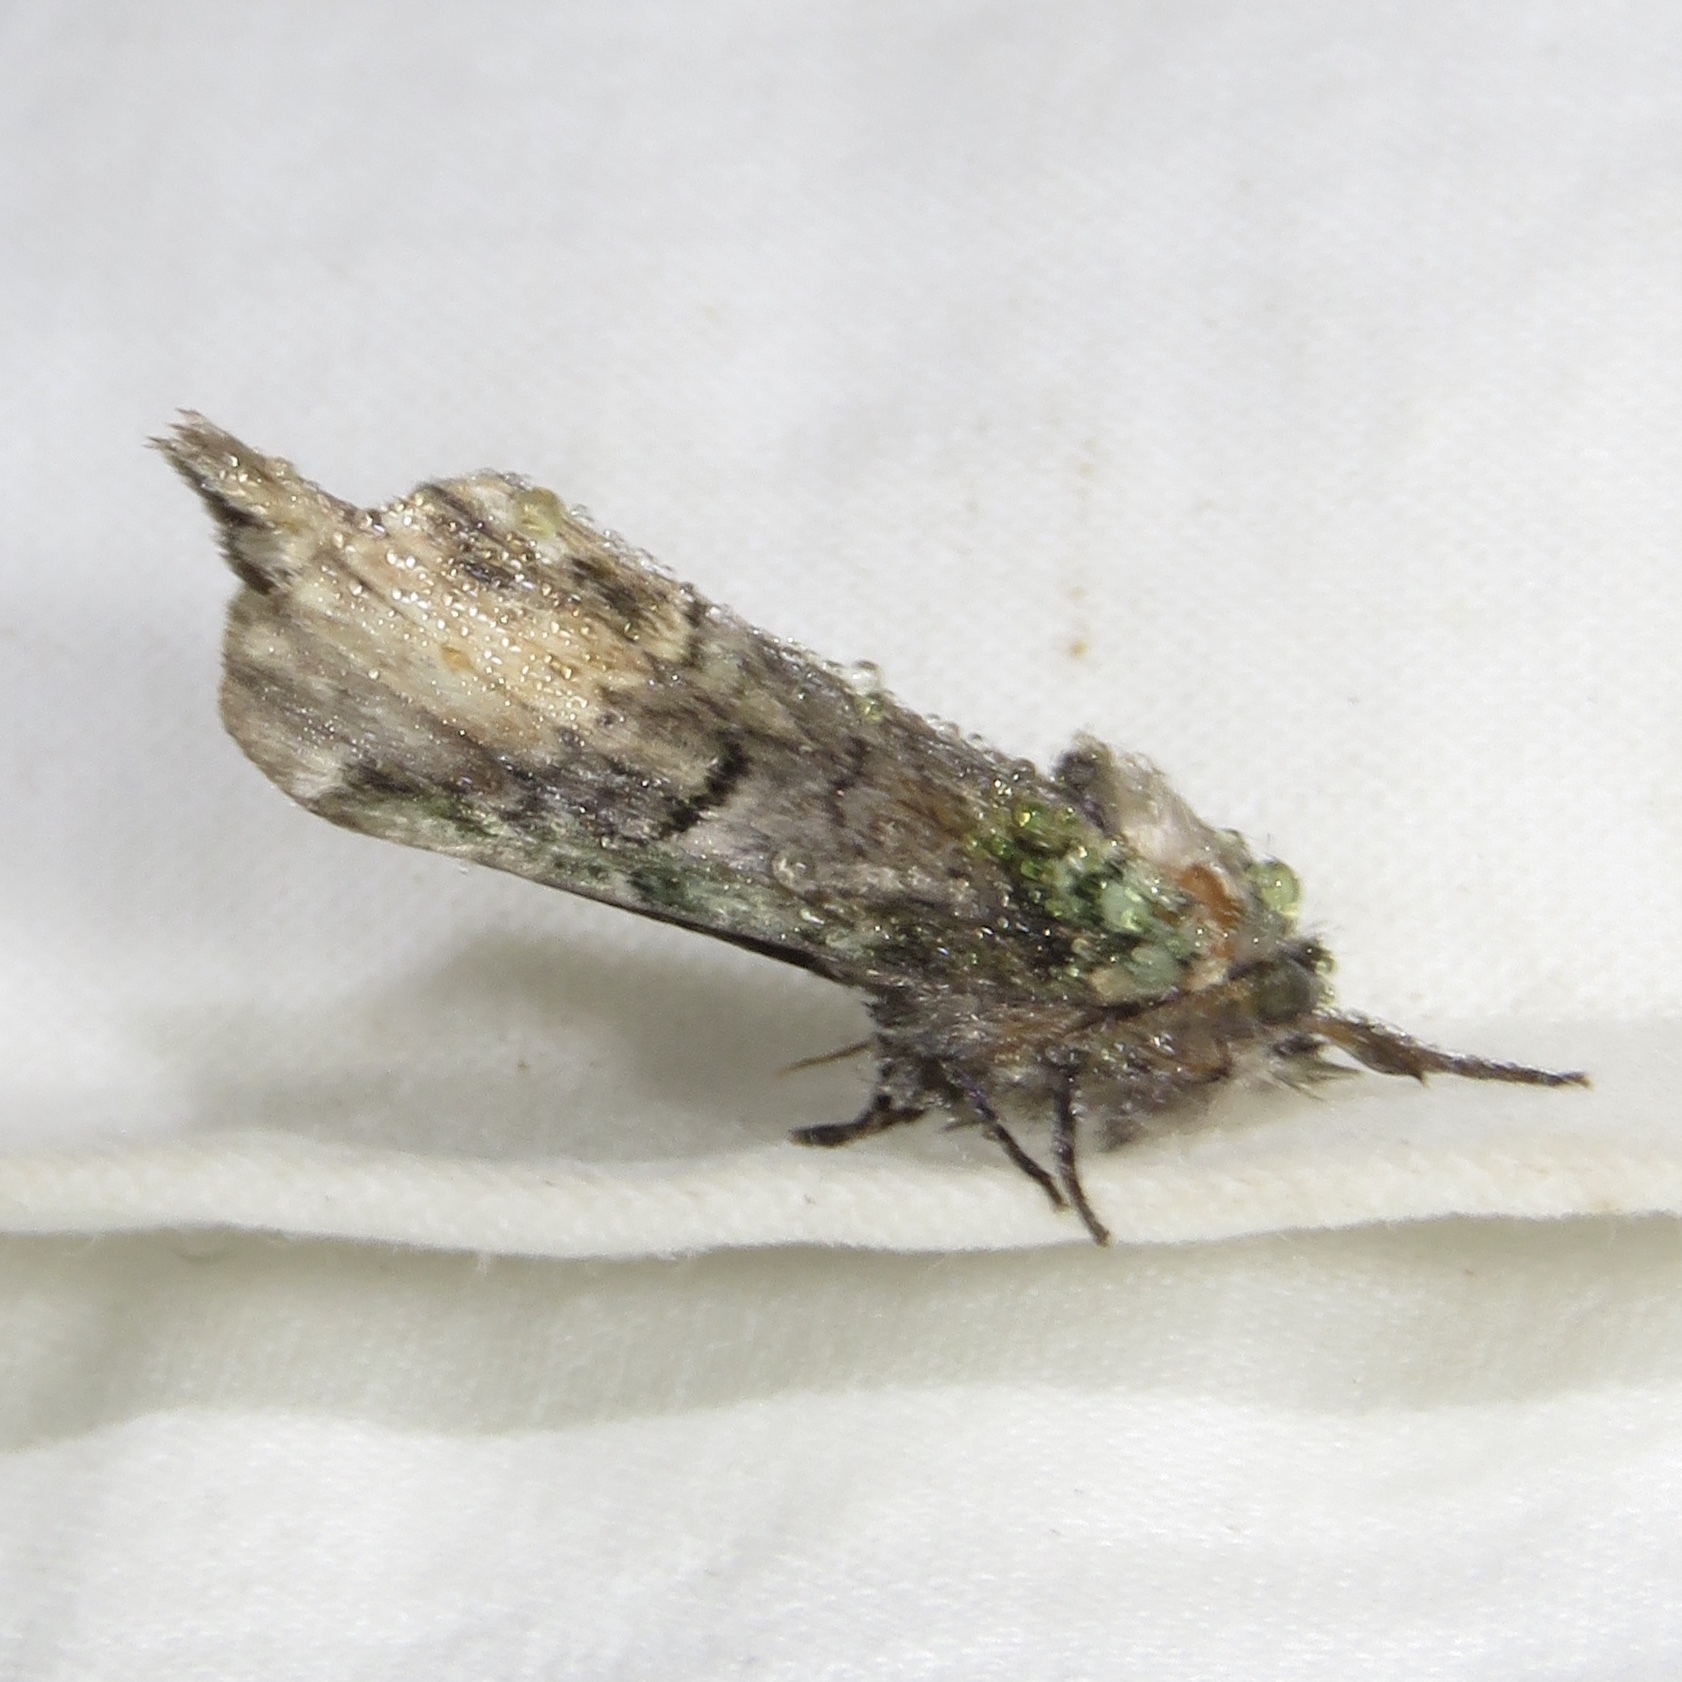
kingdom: Animalia
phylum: Arthropoda
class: Insecta
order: Lepidoptera
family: Notodontidae
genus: Schizura
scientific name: Schizura
